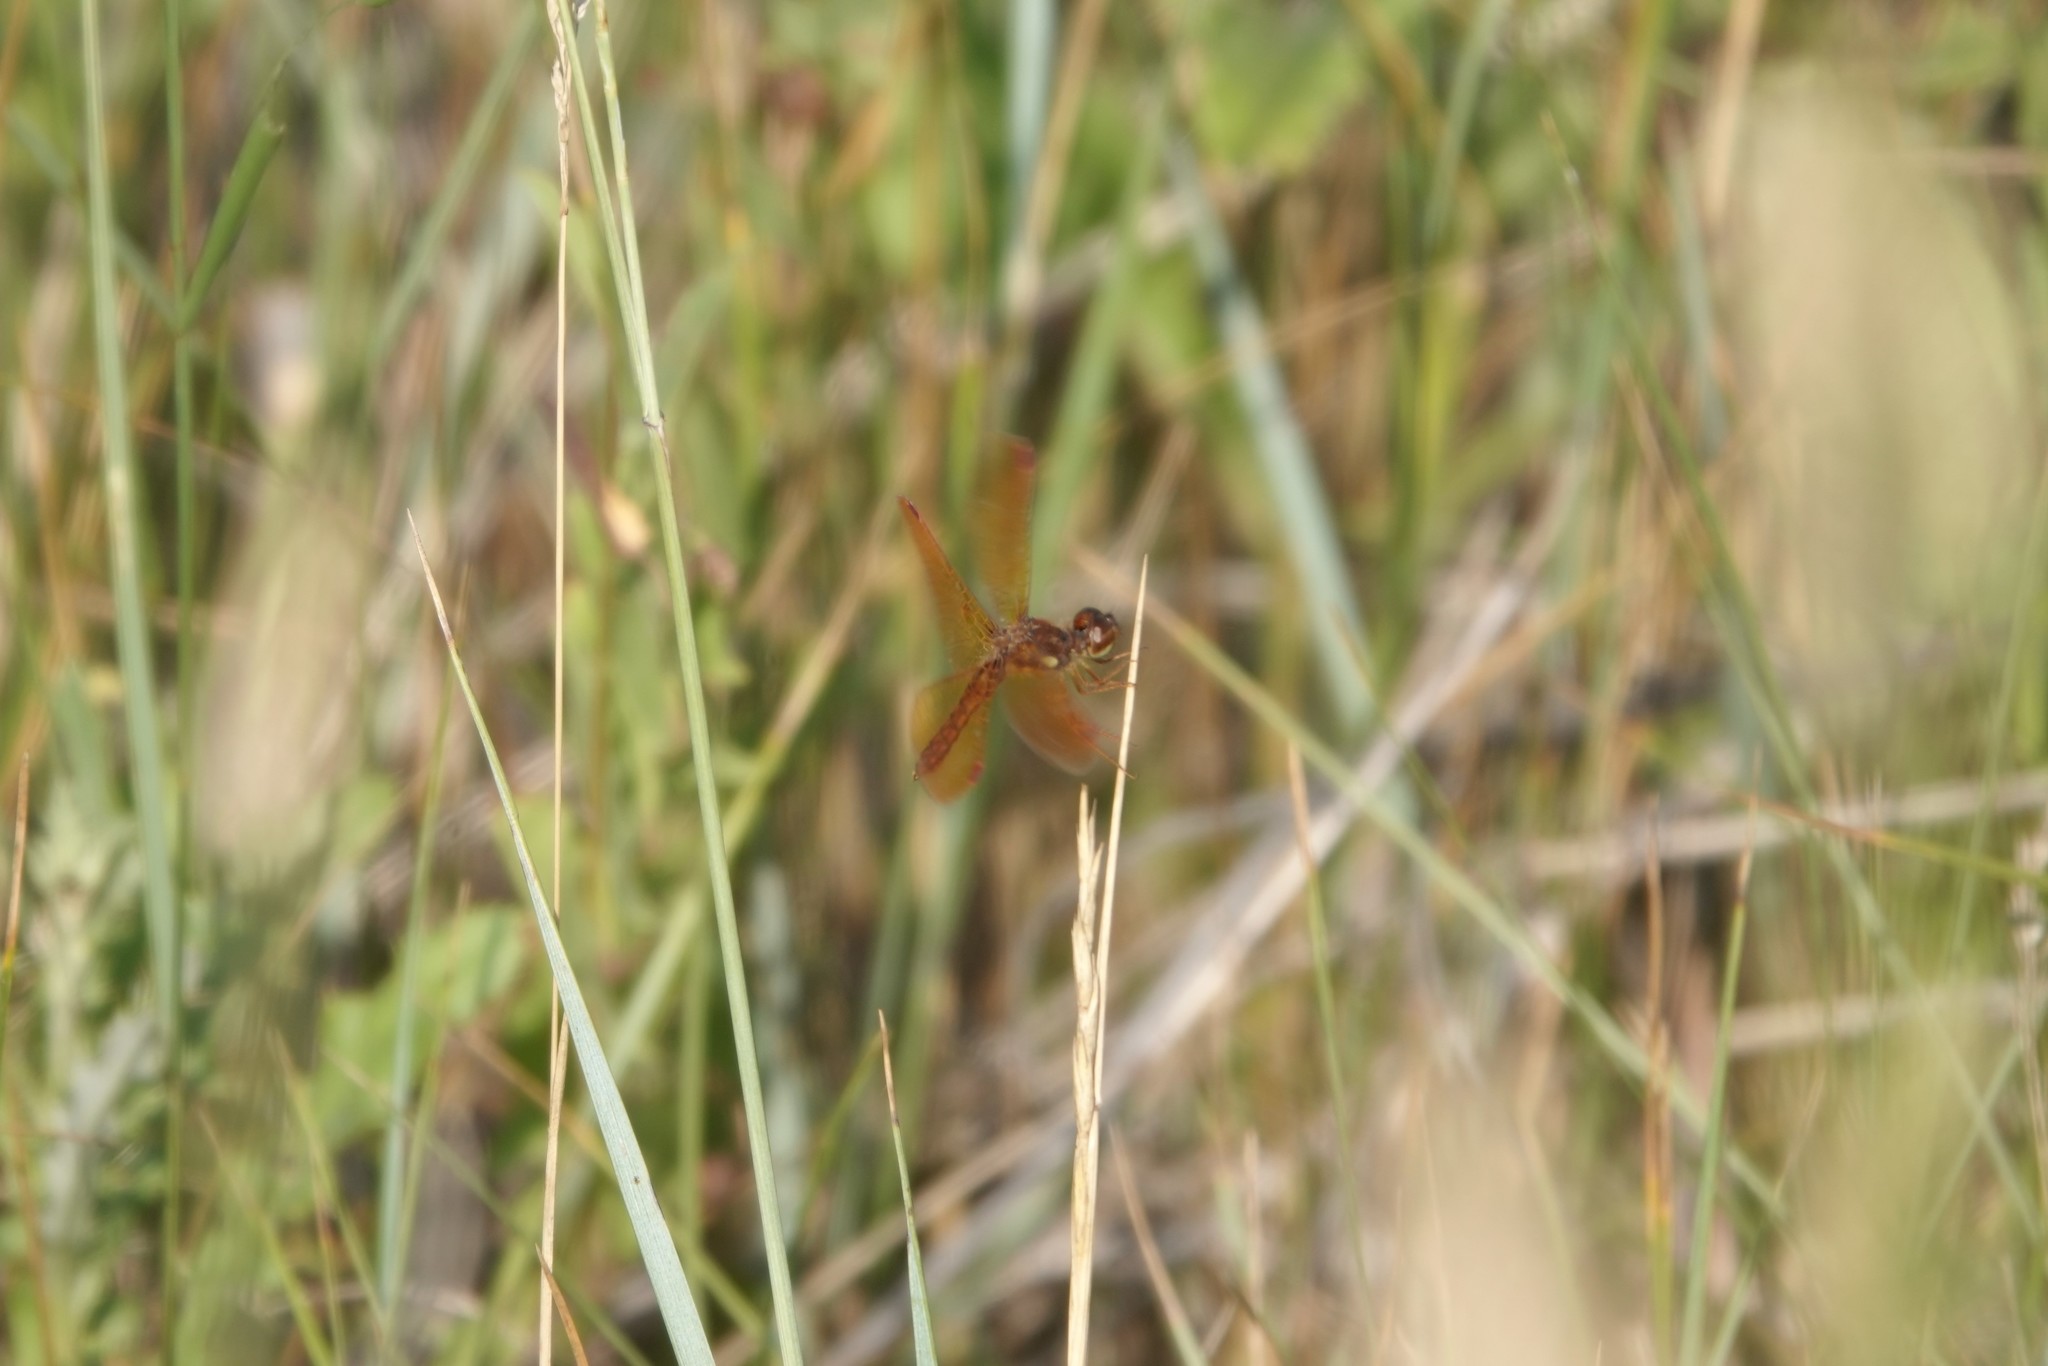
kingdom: Animalia
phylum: Arthropoda
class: Insecta
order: Odonata
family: Libellulidae
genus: Perithemis
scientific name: Perithemis tenera
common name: Eastern amberwing
